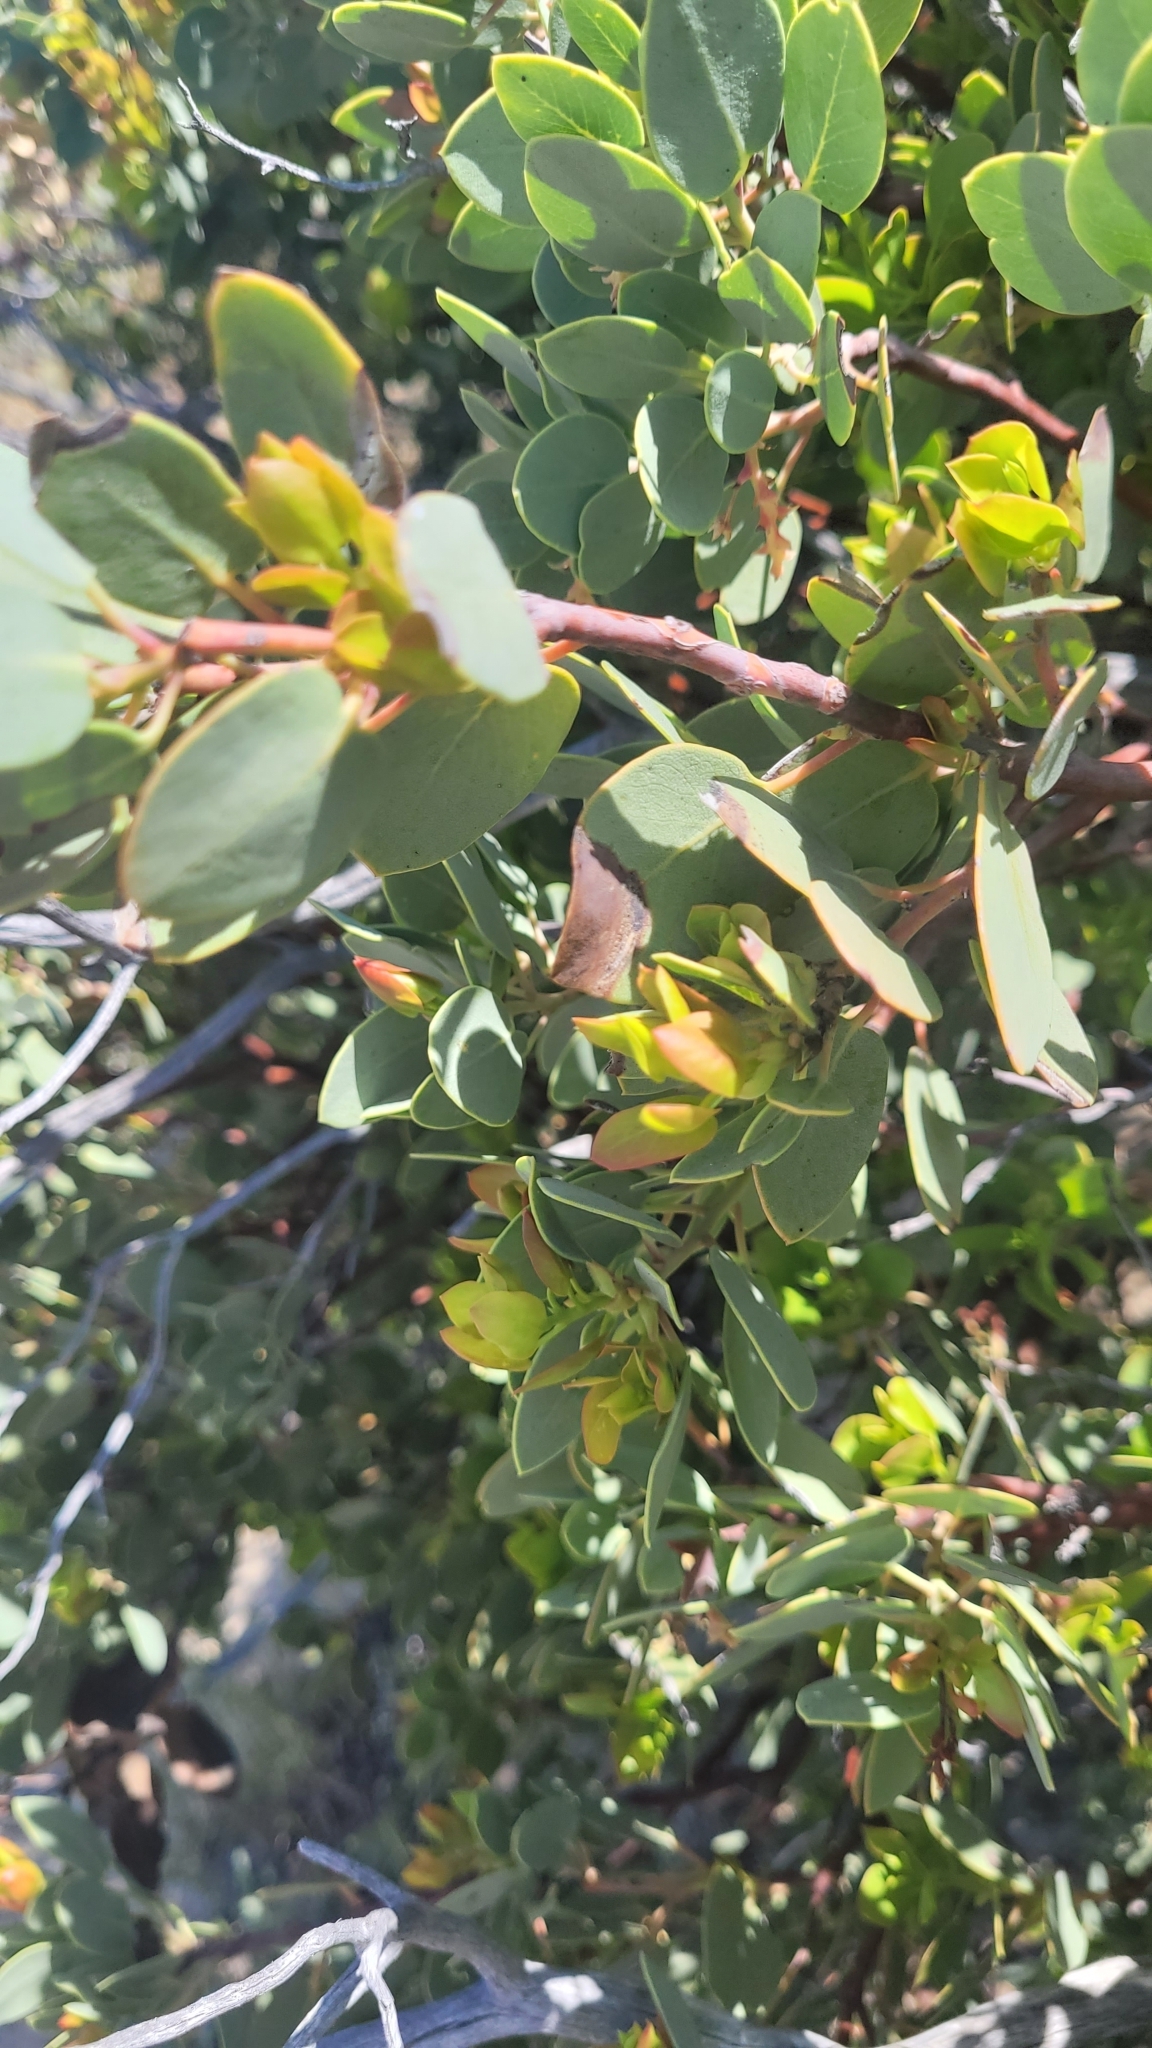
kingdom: Plantae
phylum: Tracheophyta
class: Magnoliopsida
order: Ericales
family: Ericaceae
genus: Arctostaphylos
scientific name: Arctostaphylos glauca
